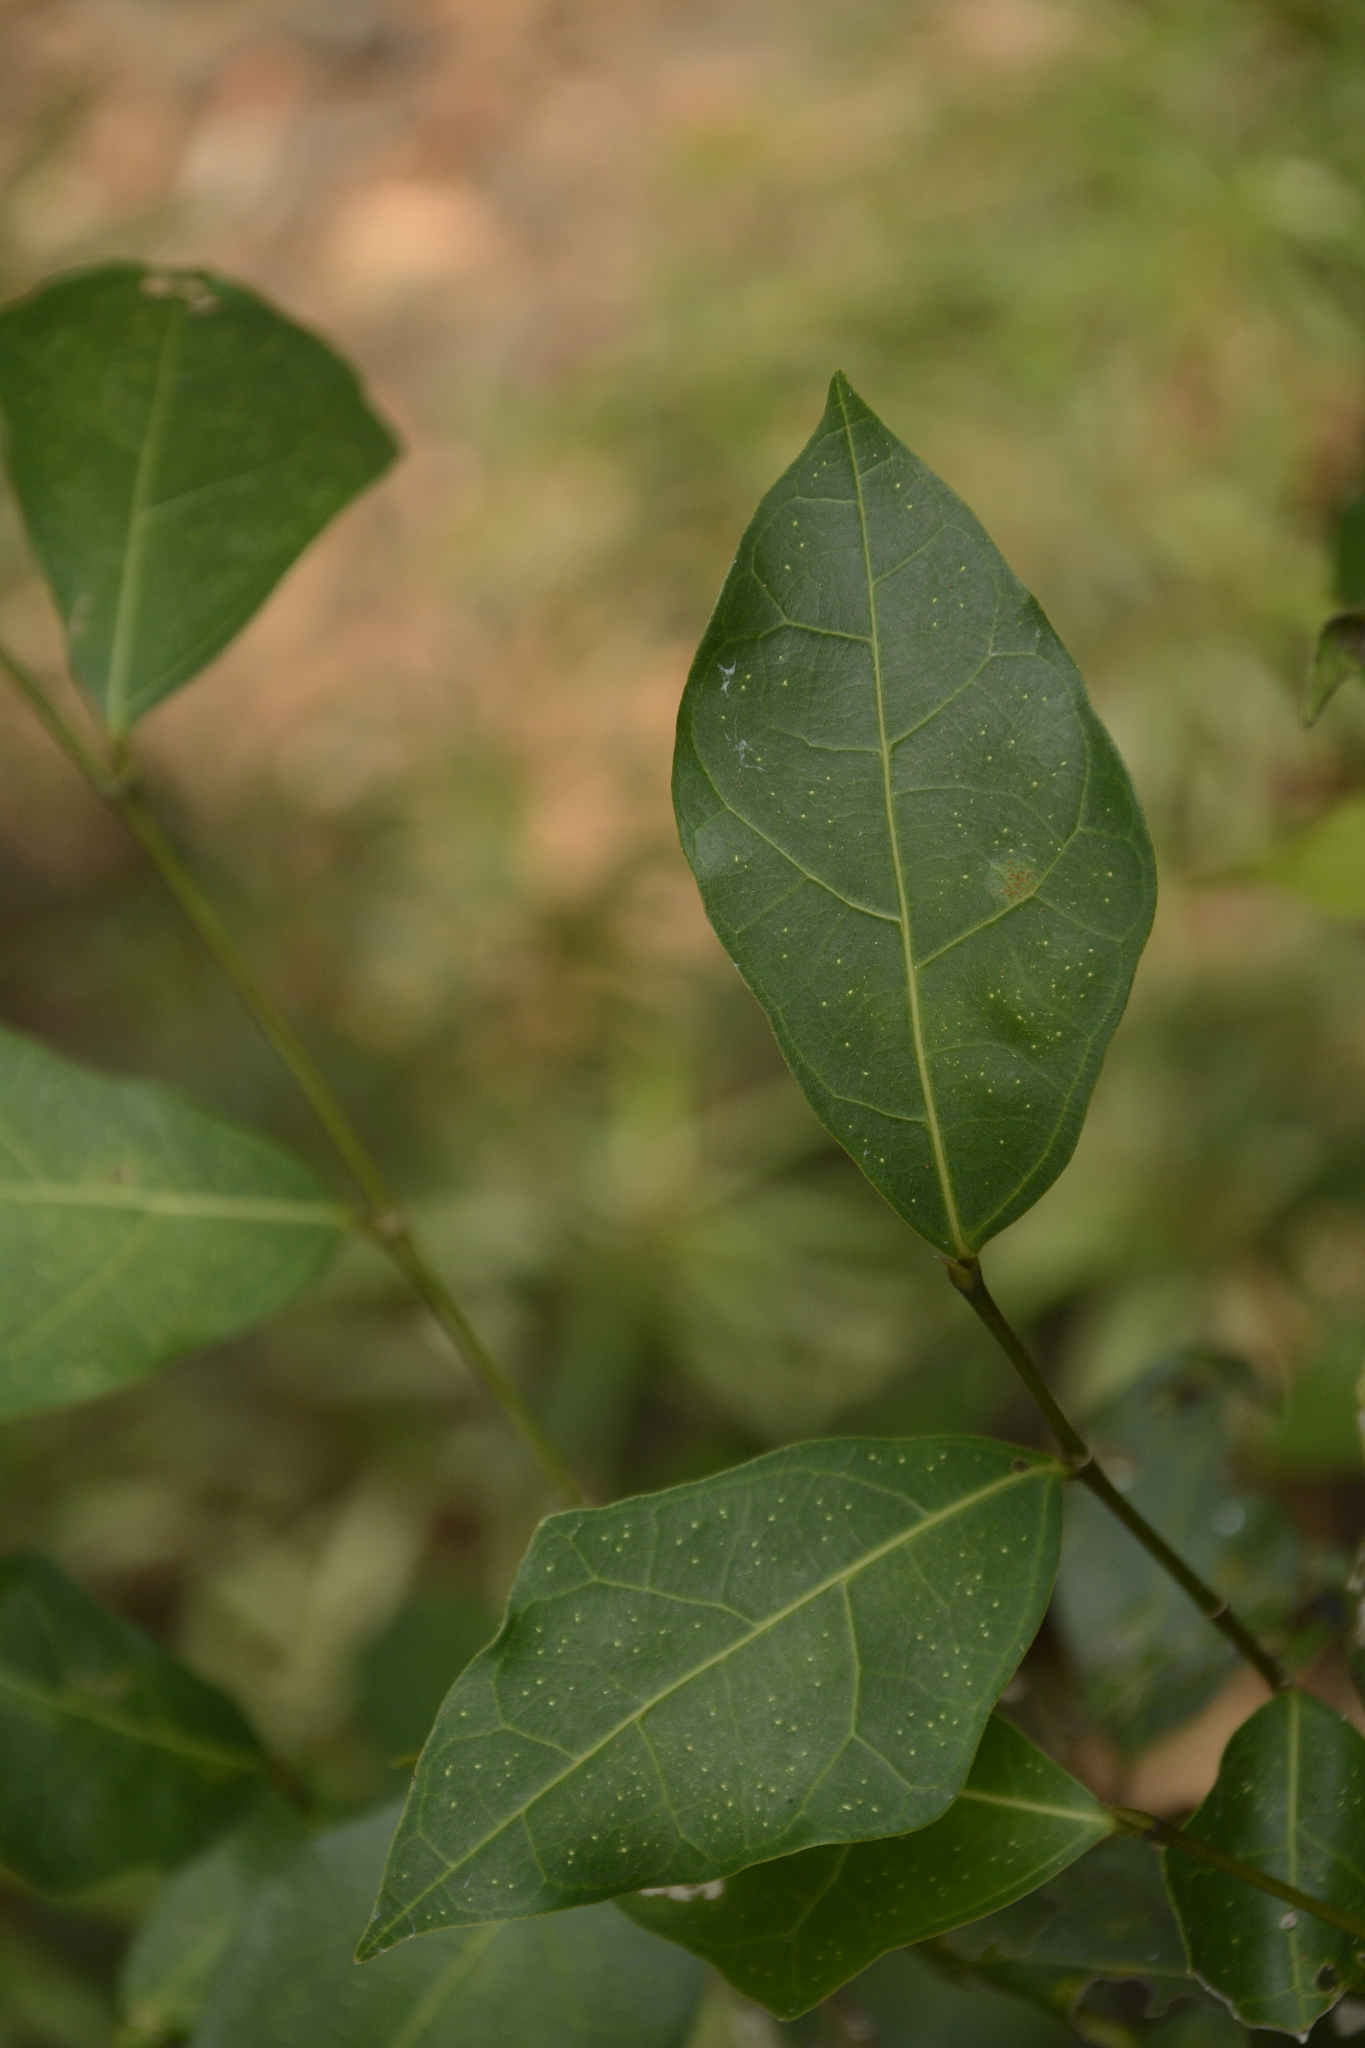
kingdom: Plantae
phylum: Tracheophyta
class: Magnoliopsida
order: Rosales
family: Moraceae
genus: Ficus
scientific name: Ficus tinctoria
